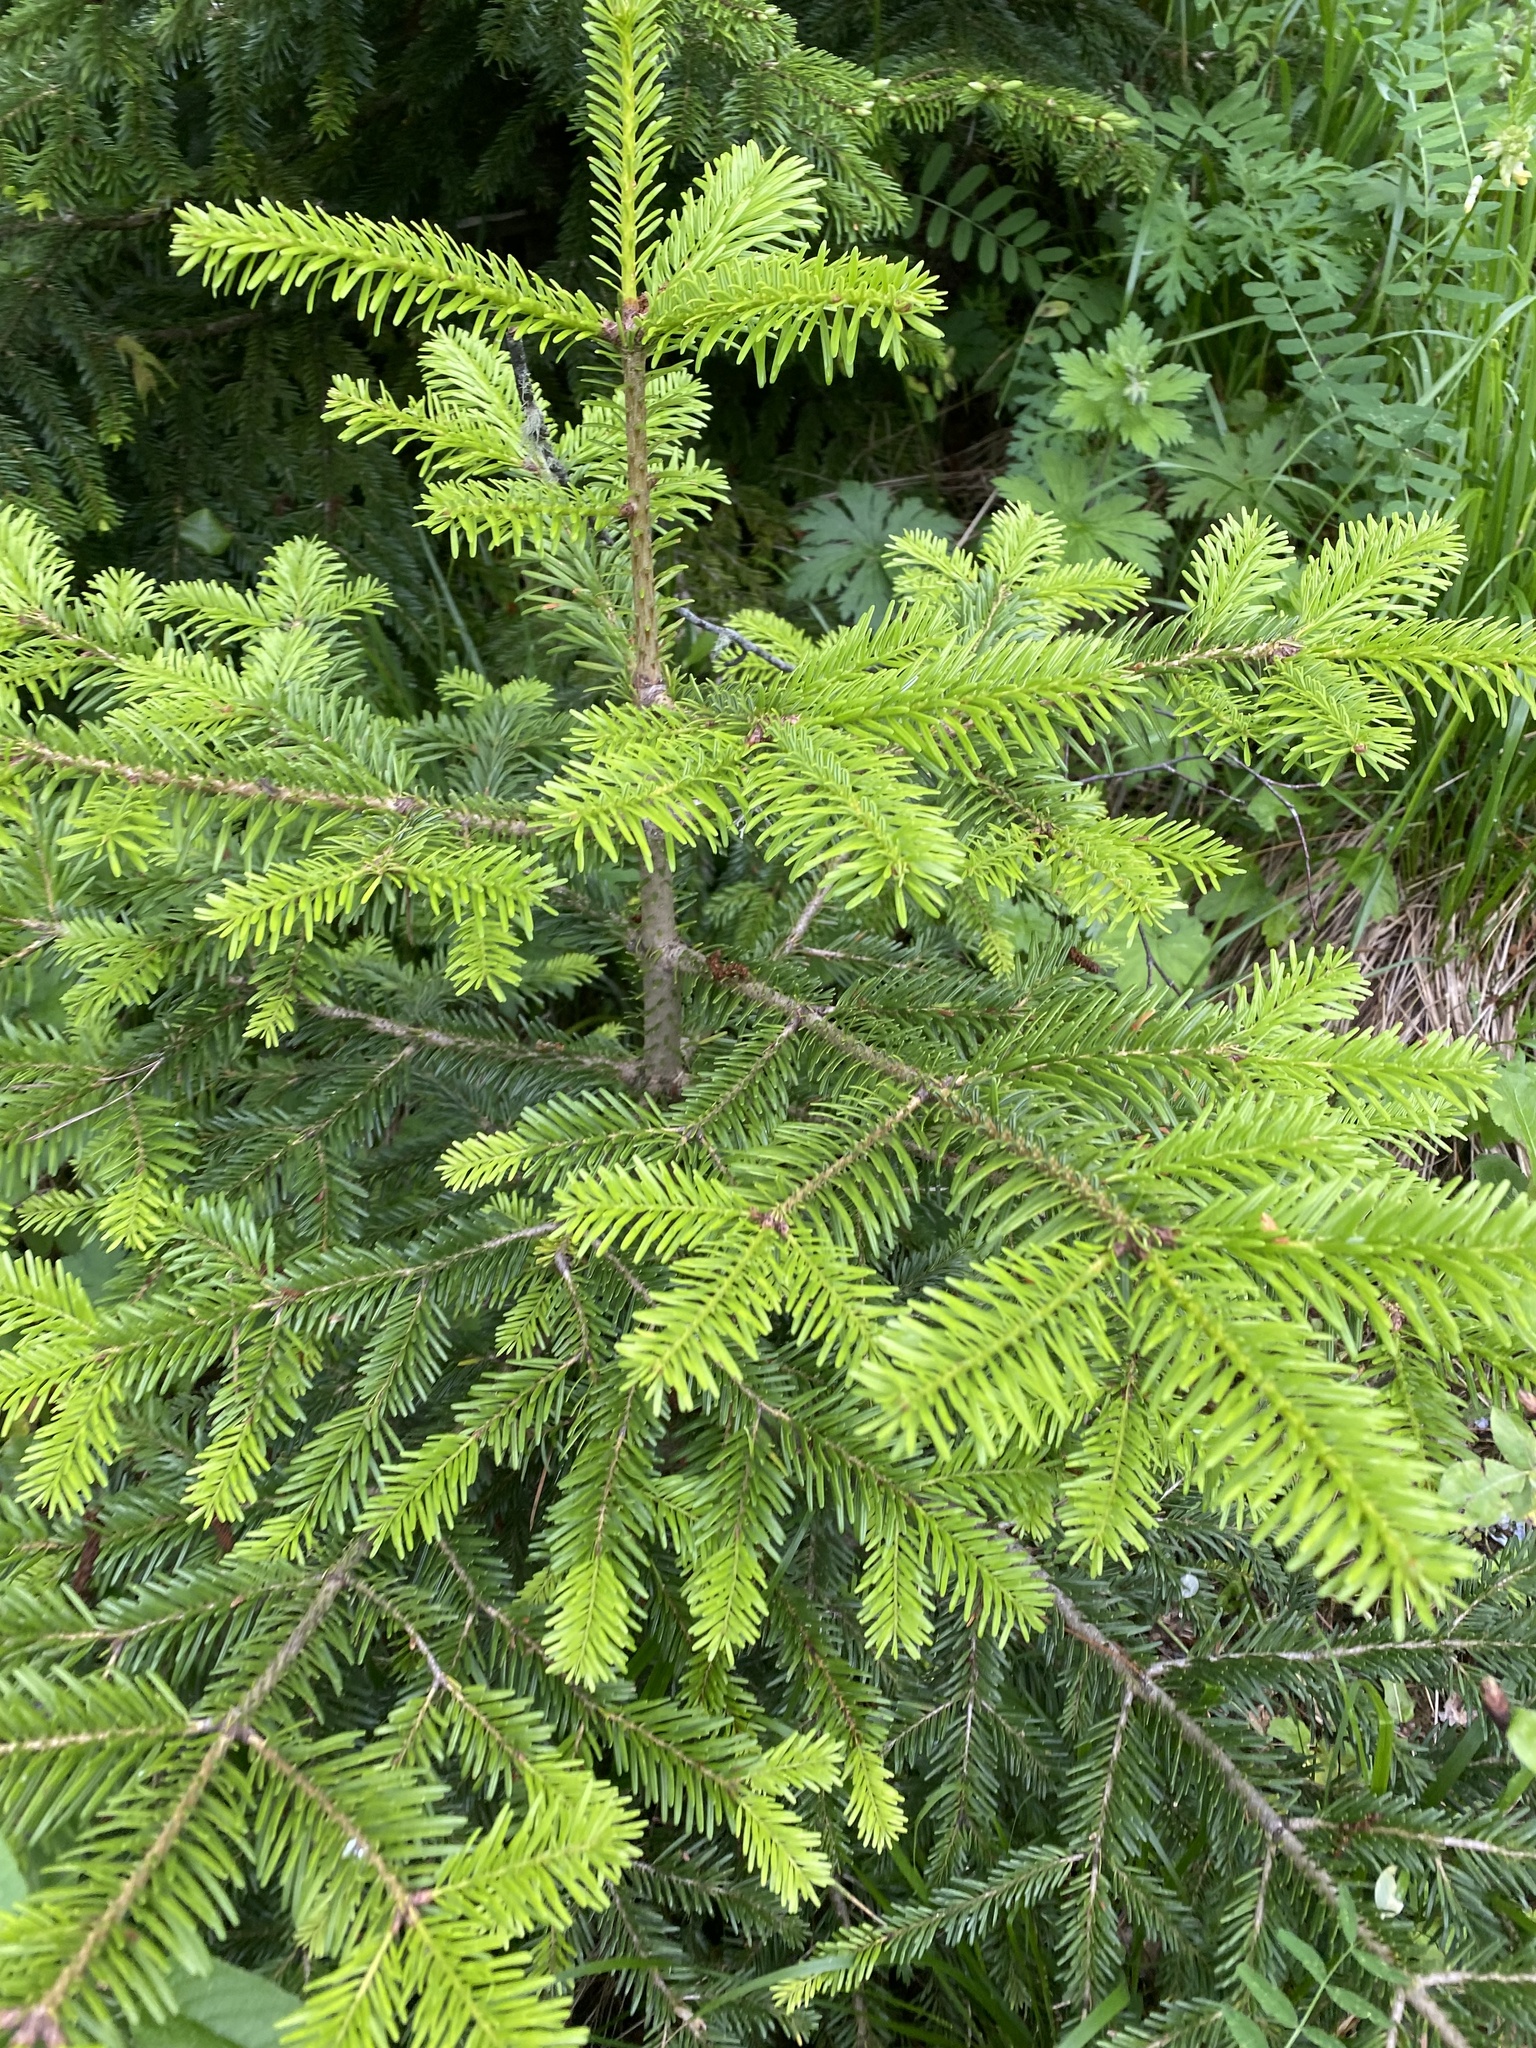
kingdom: Plantae
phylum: Tracheophyta
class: Pinopsida
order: Pinales
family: Pinaceae
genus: Abies
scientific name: Abies nordmanniana
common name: Caucasian fir
